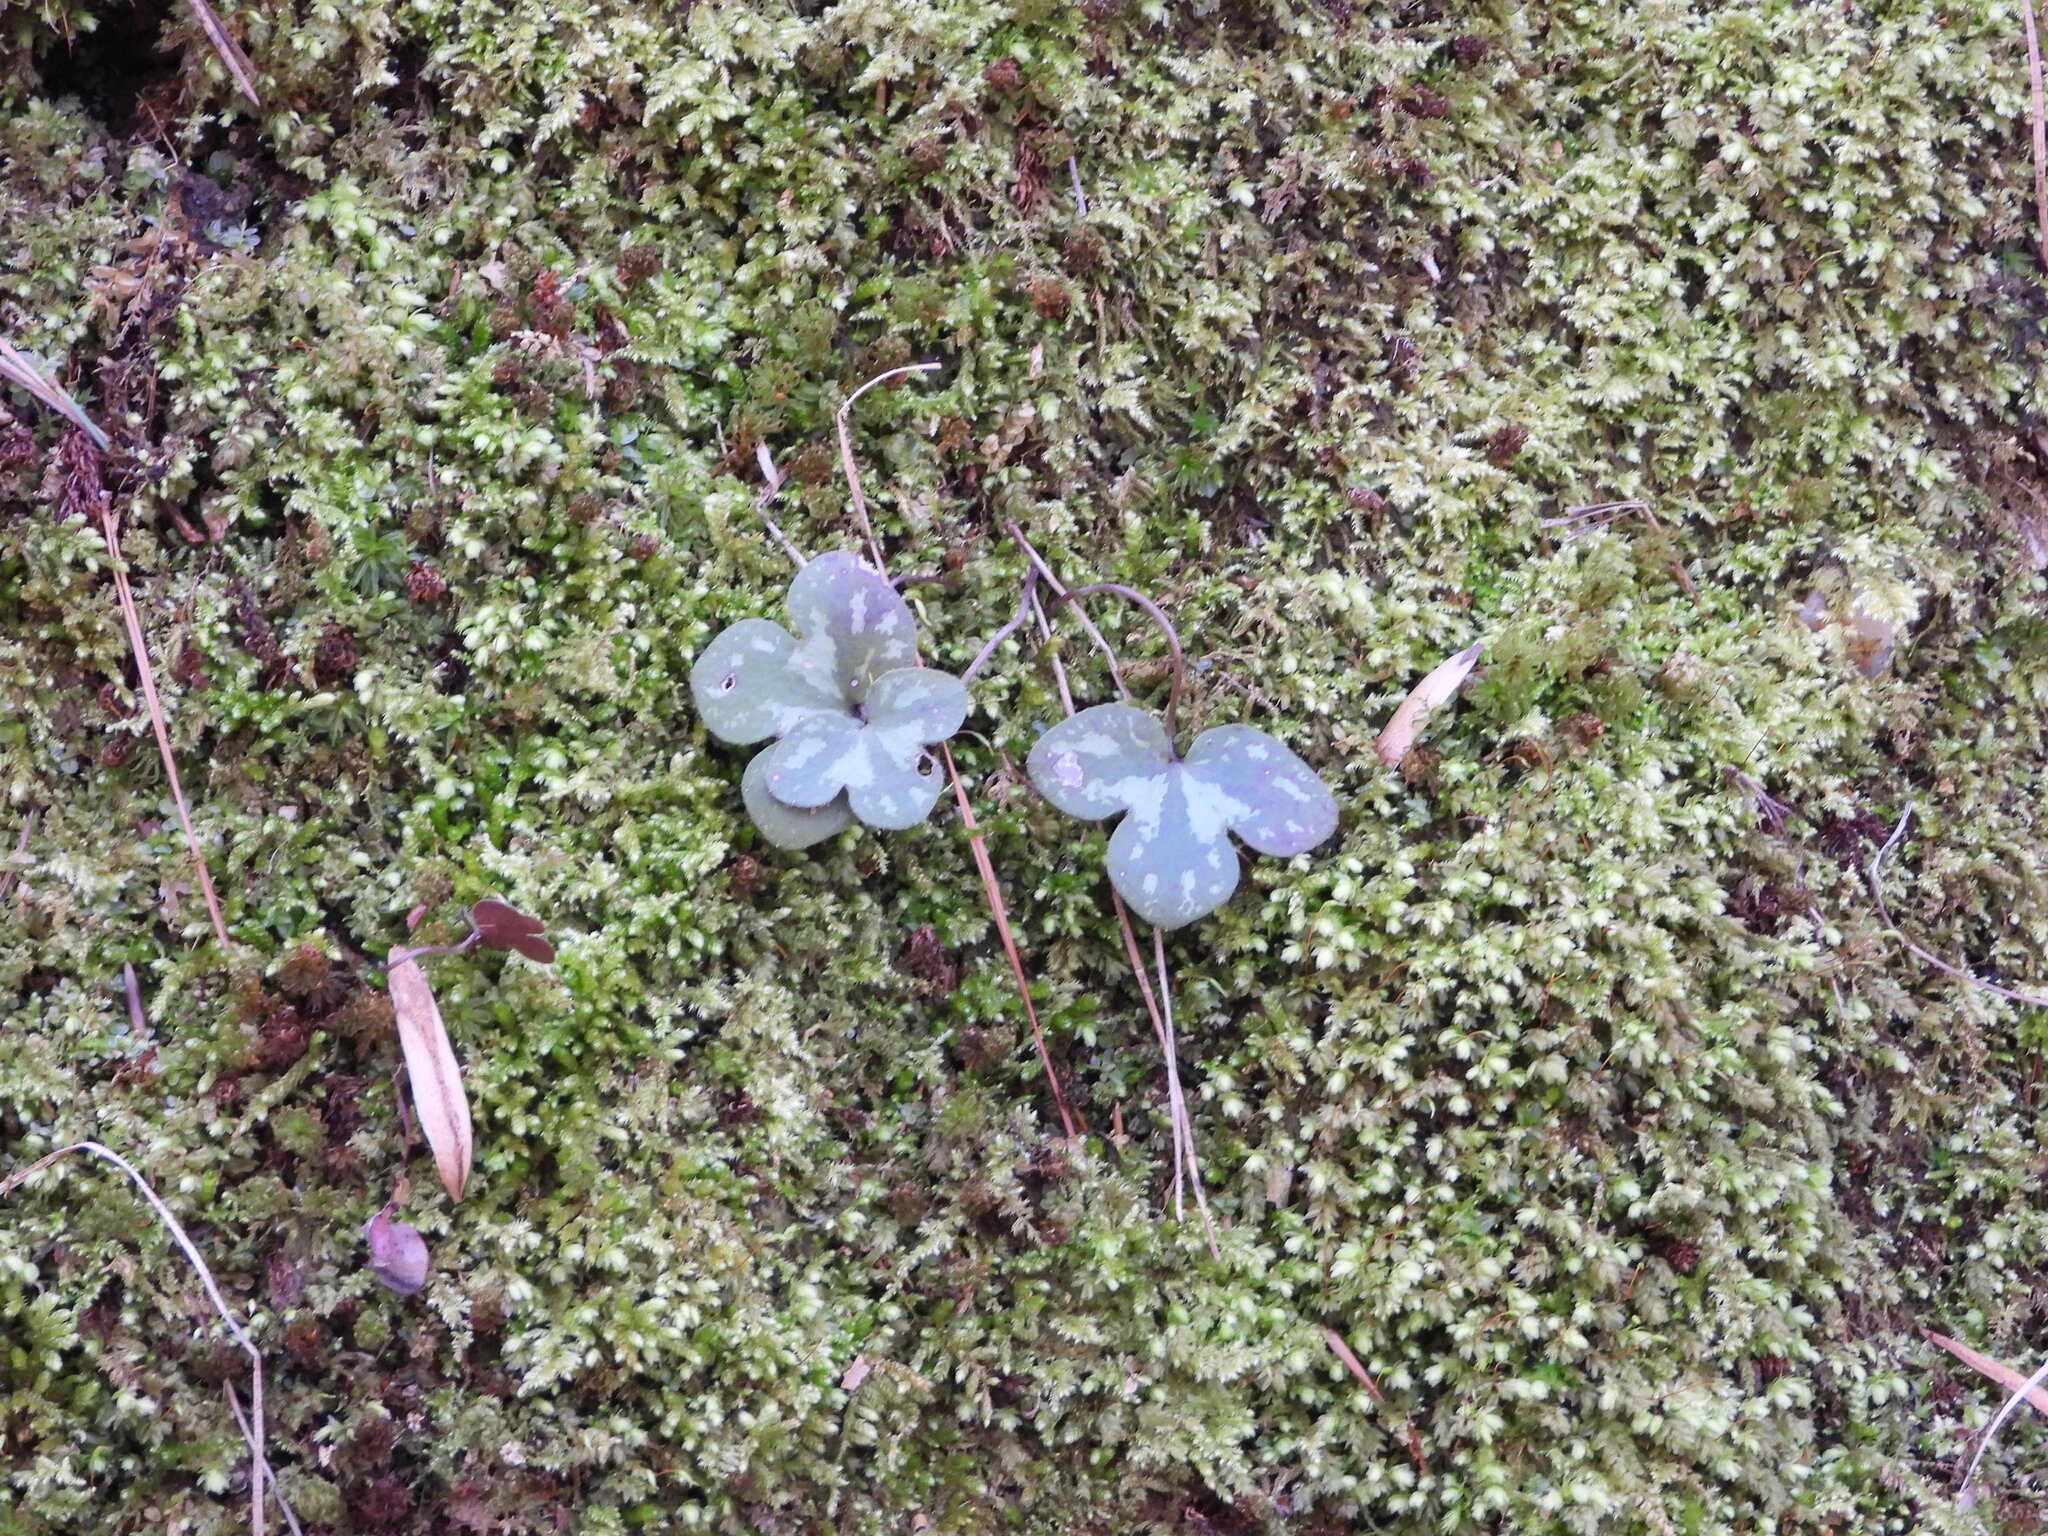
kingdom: Plantae
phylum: Tracheophyta
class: Magnoliopsida
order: Ranunculales
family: Ranunculaceae
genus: Hepatica
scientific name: Hepatica americana
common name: American hepatica
